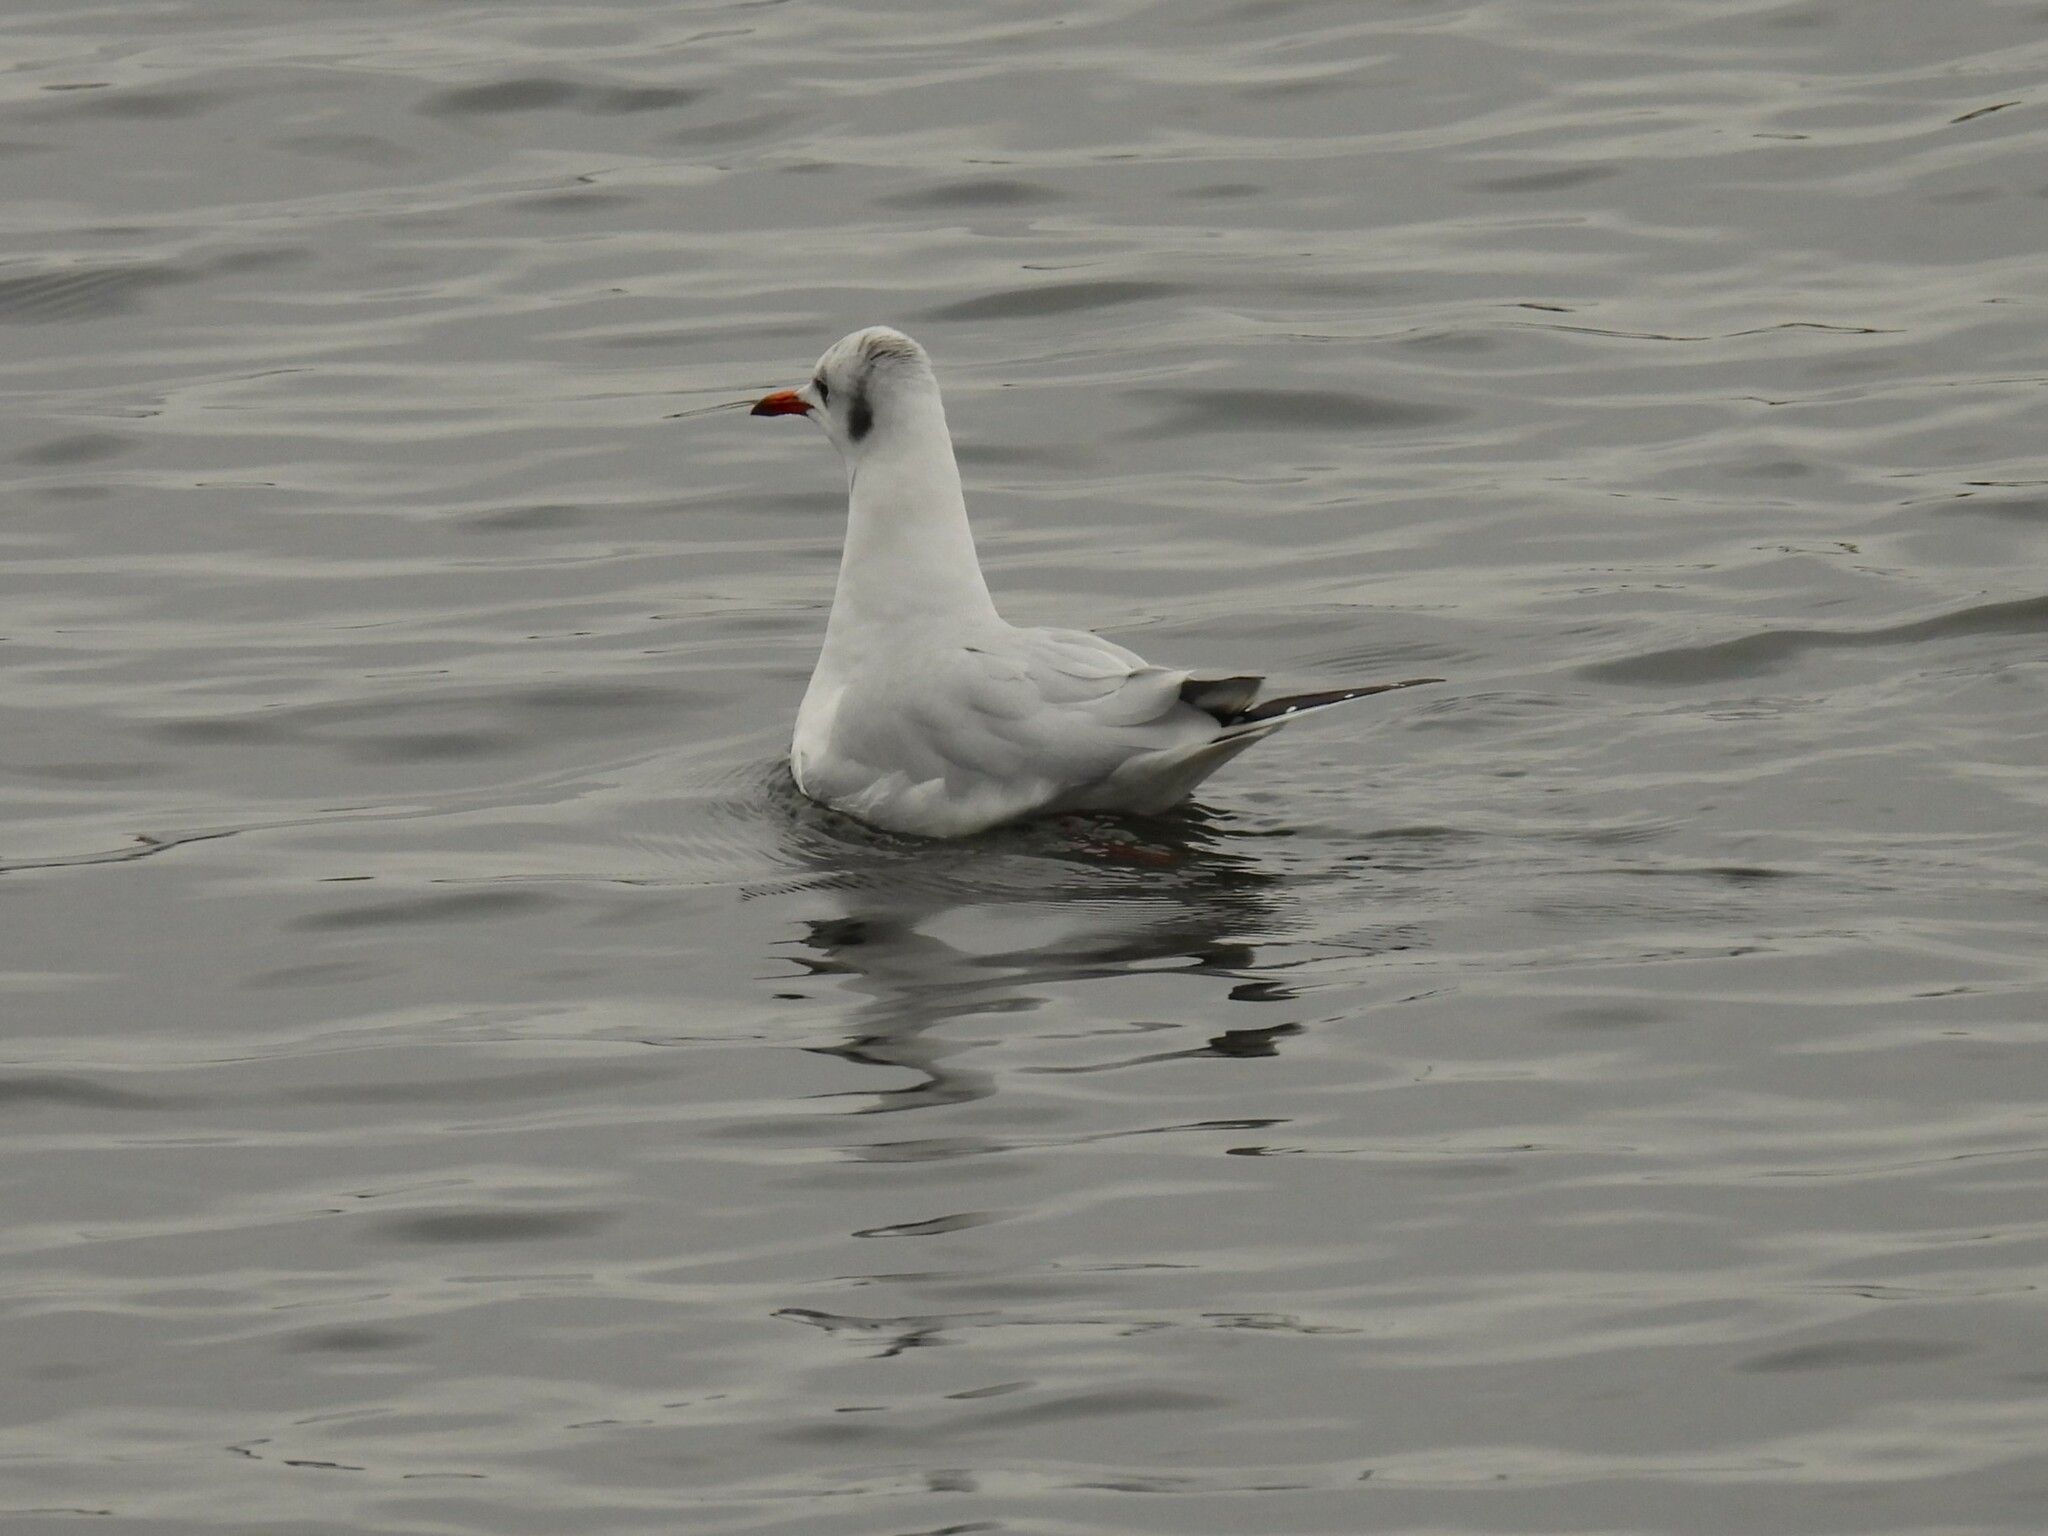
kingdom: Animalia
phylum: Chordata
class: Aves
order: Charadriiformes
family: Laridae
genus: Chroicocephalus
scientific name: Chroicocephalus ridibundus
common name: Black-headed gull
